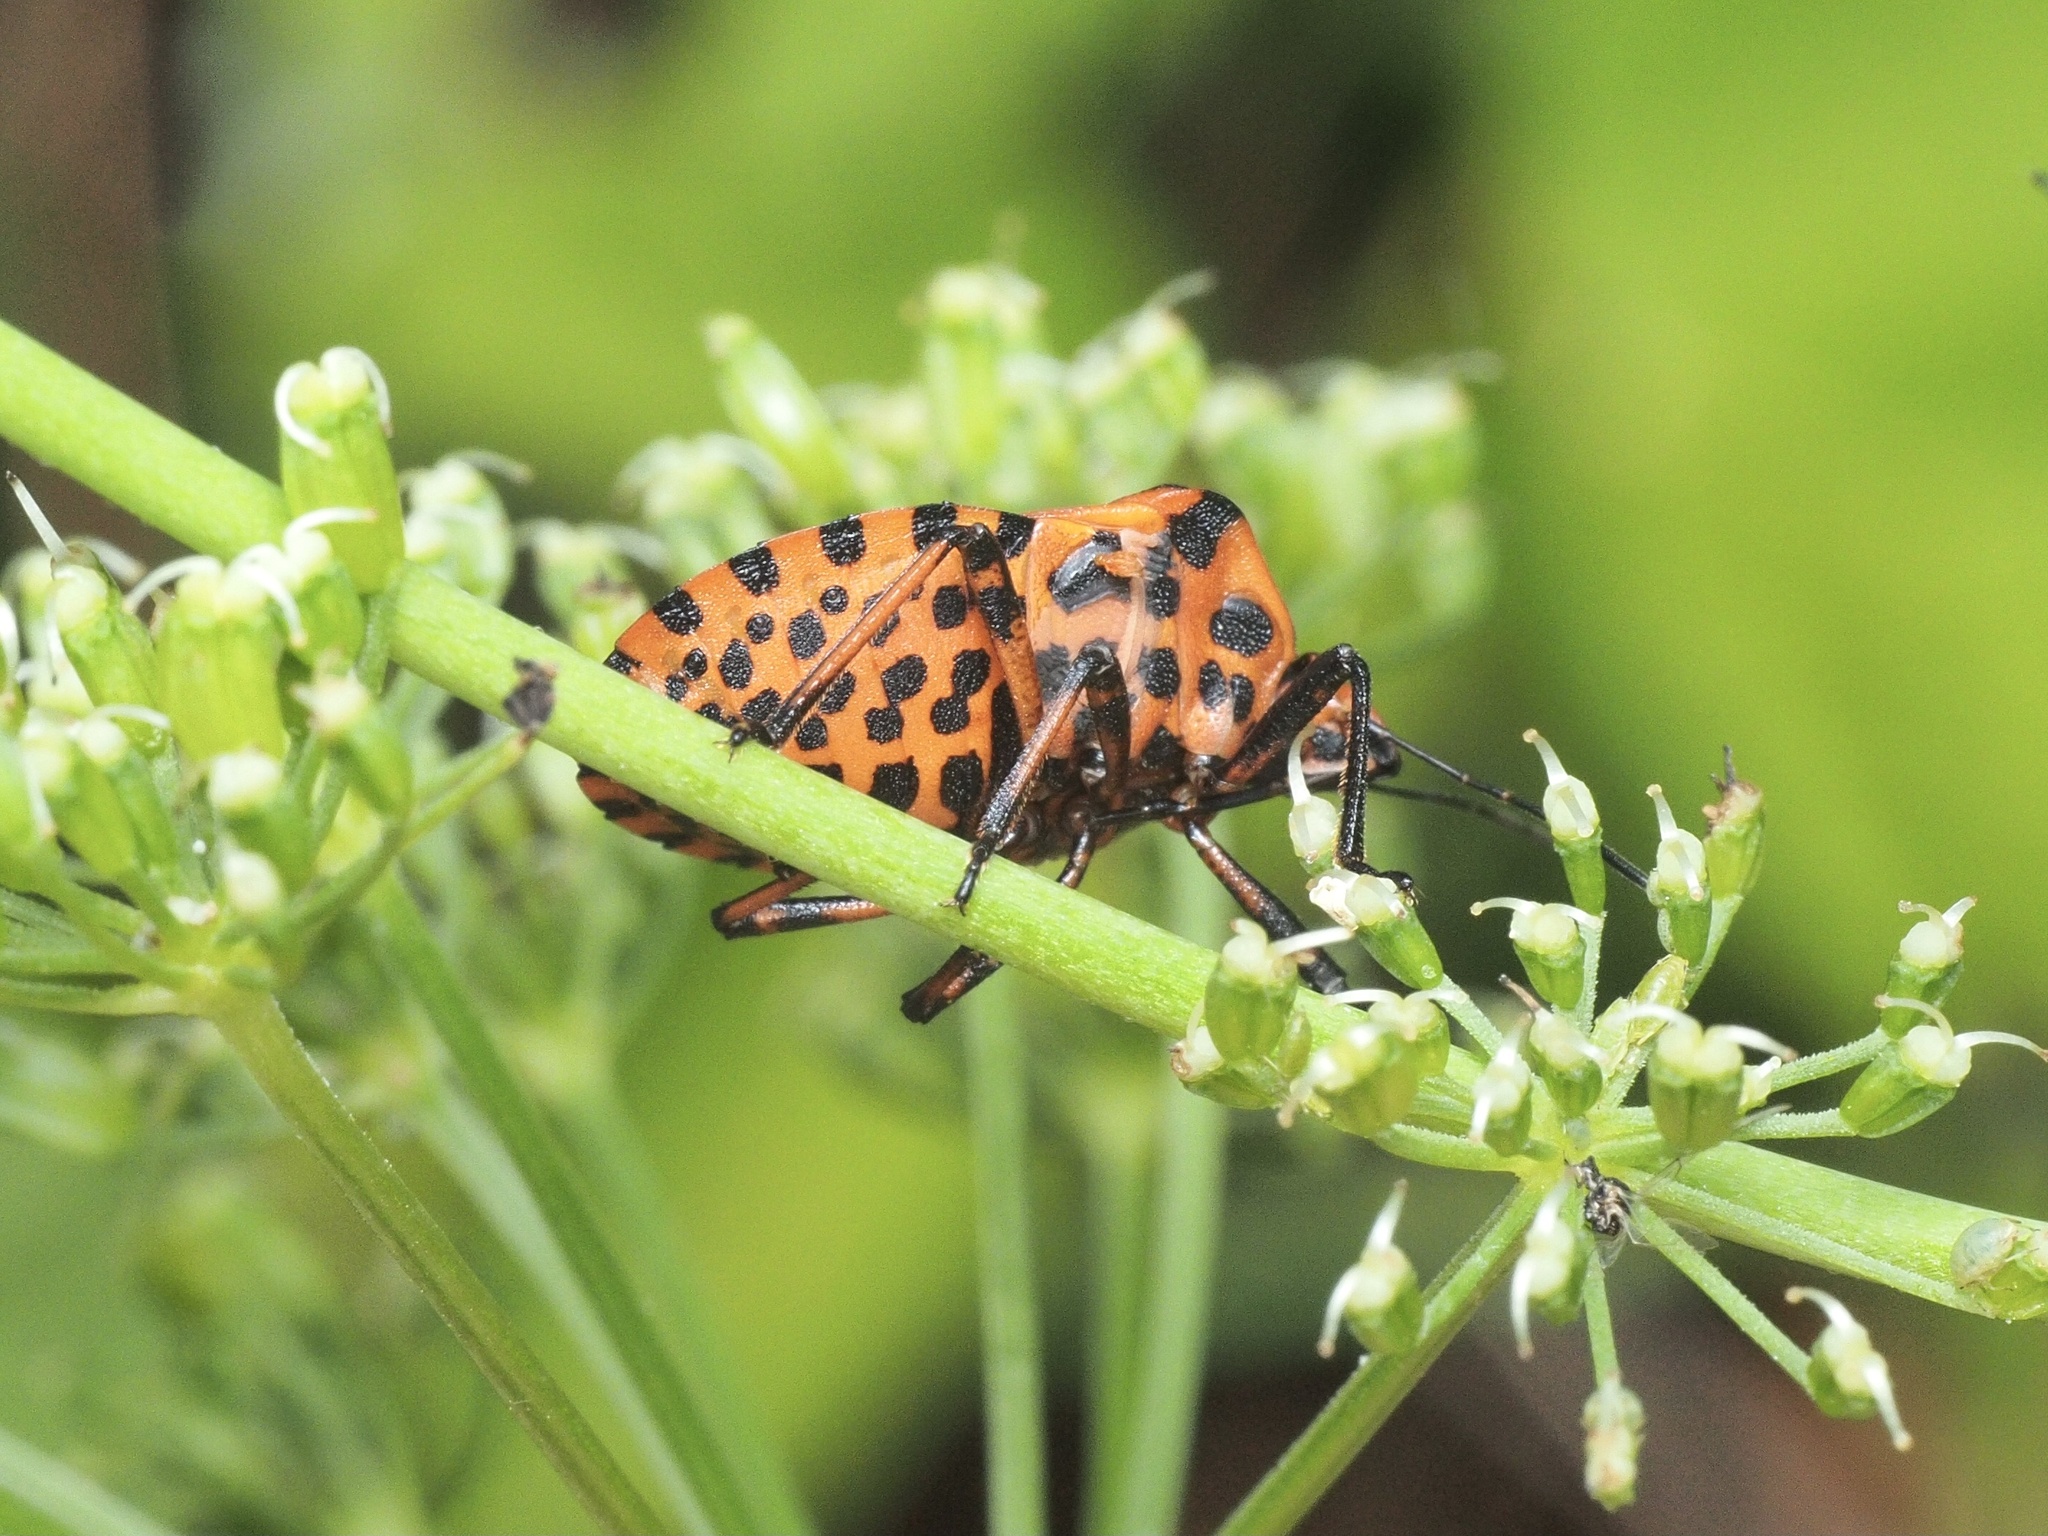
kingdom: Animalia
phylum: Arthropoda
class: Insecta
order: Hemiptera
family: Pentatomidae
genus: Graphosoma
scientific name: Graphosoma italicum
